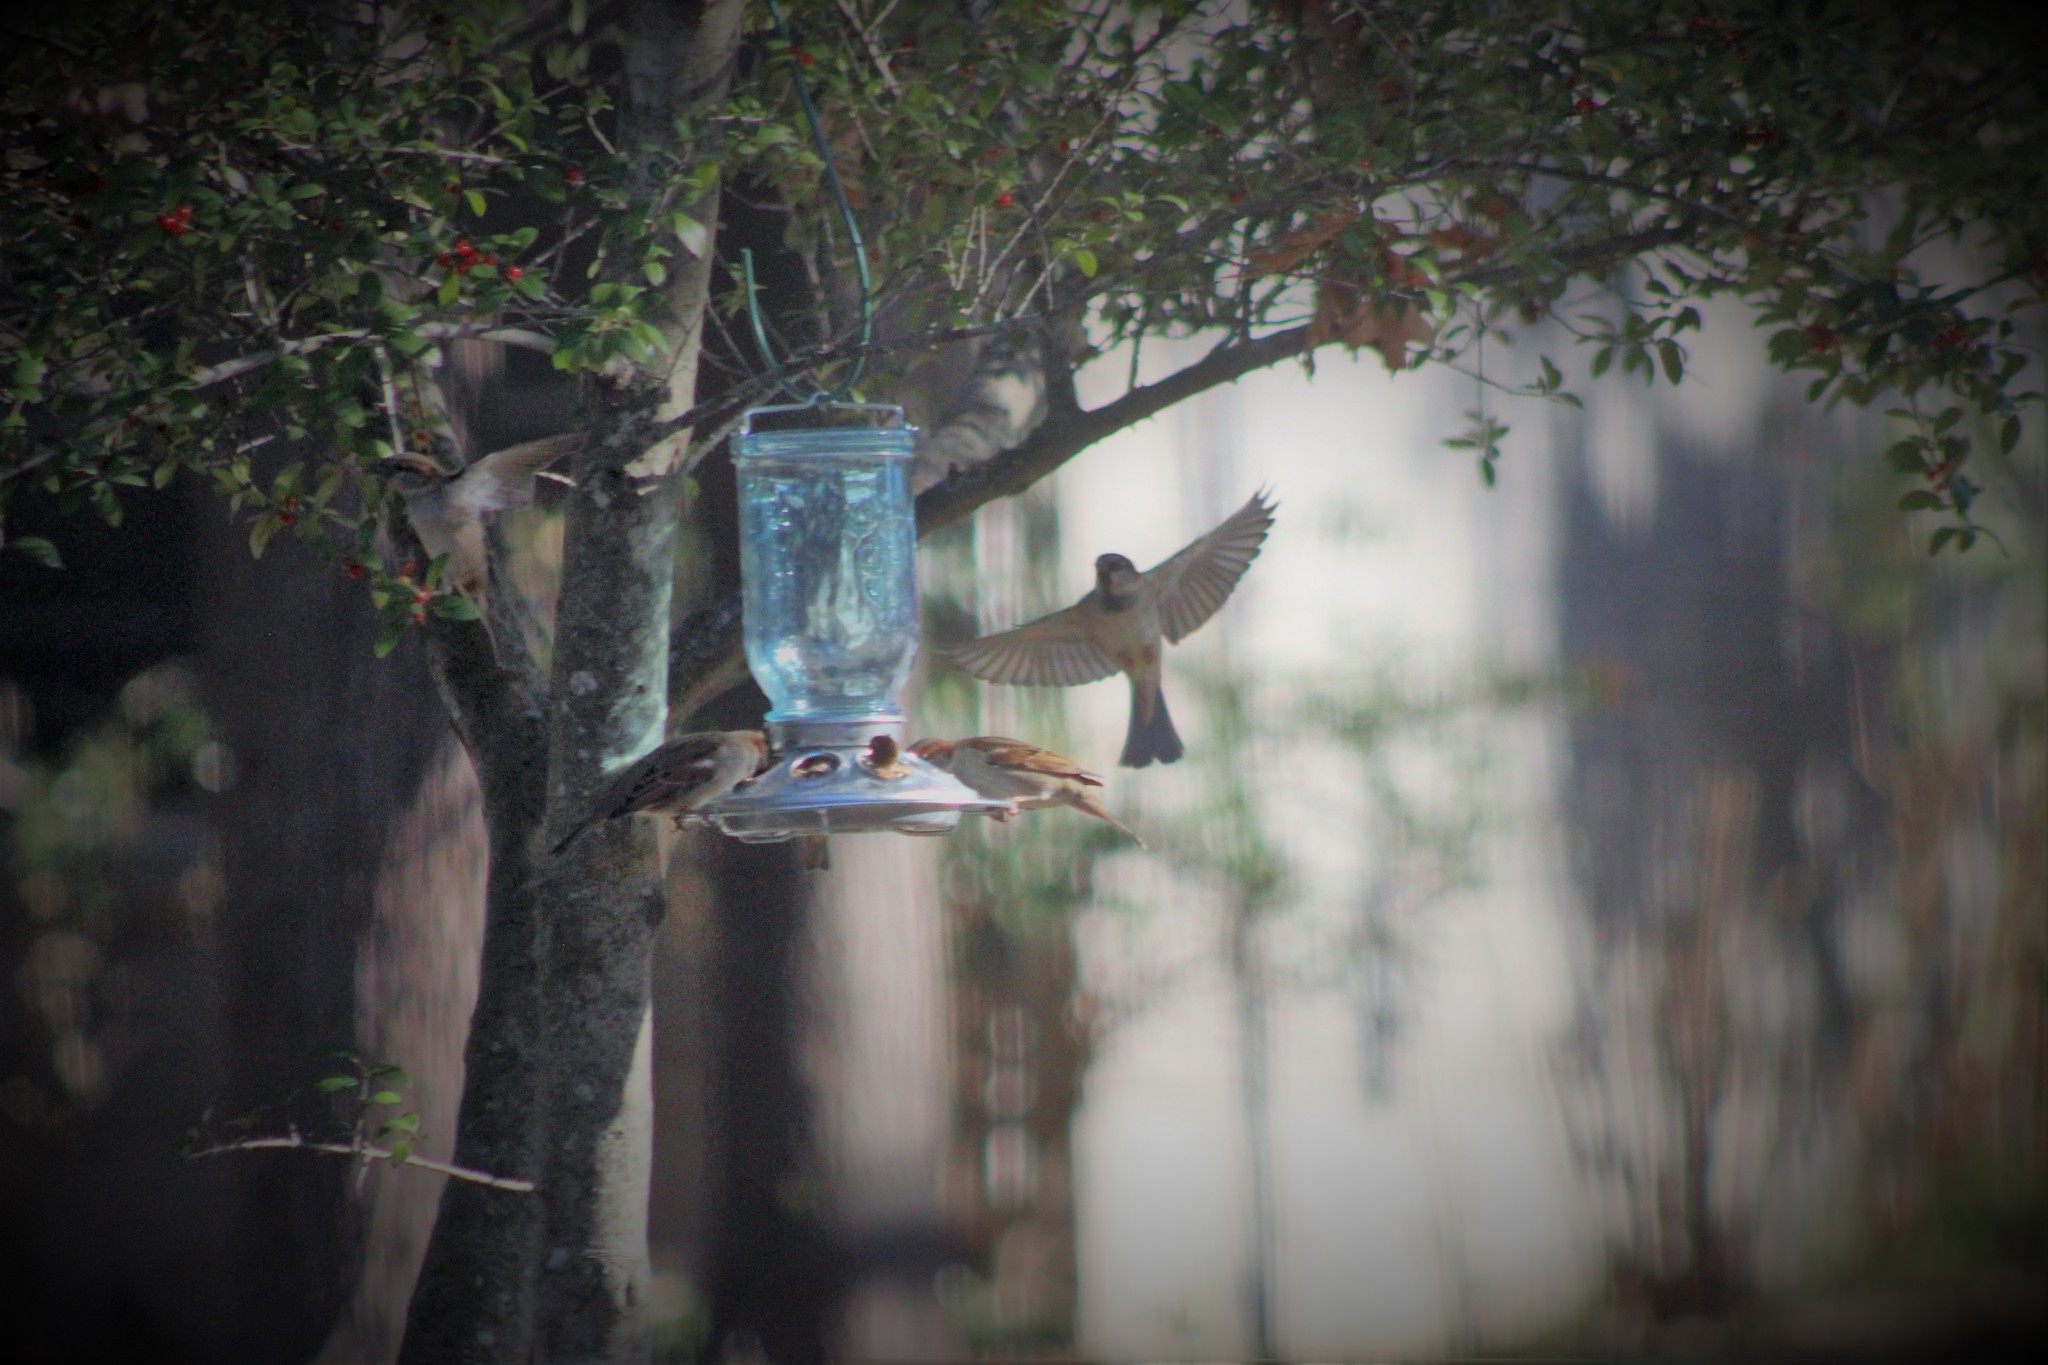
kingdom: Animalia
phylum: Chordata
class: Aves
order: Passeriformes
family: Passeridae
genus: Passer
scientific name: Passer domesticus
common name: House sparrow
